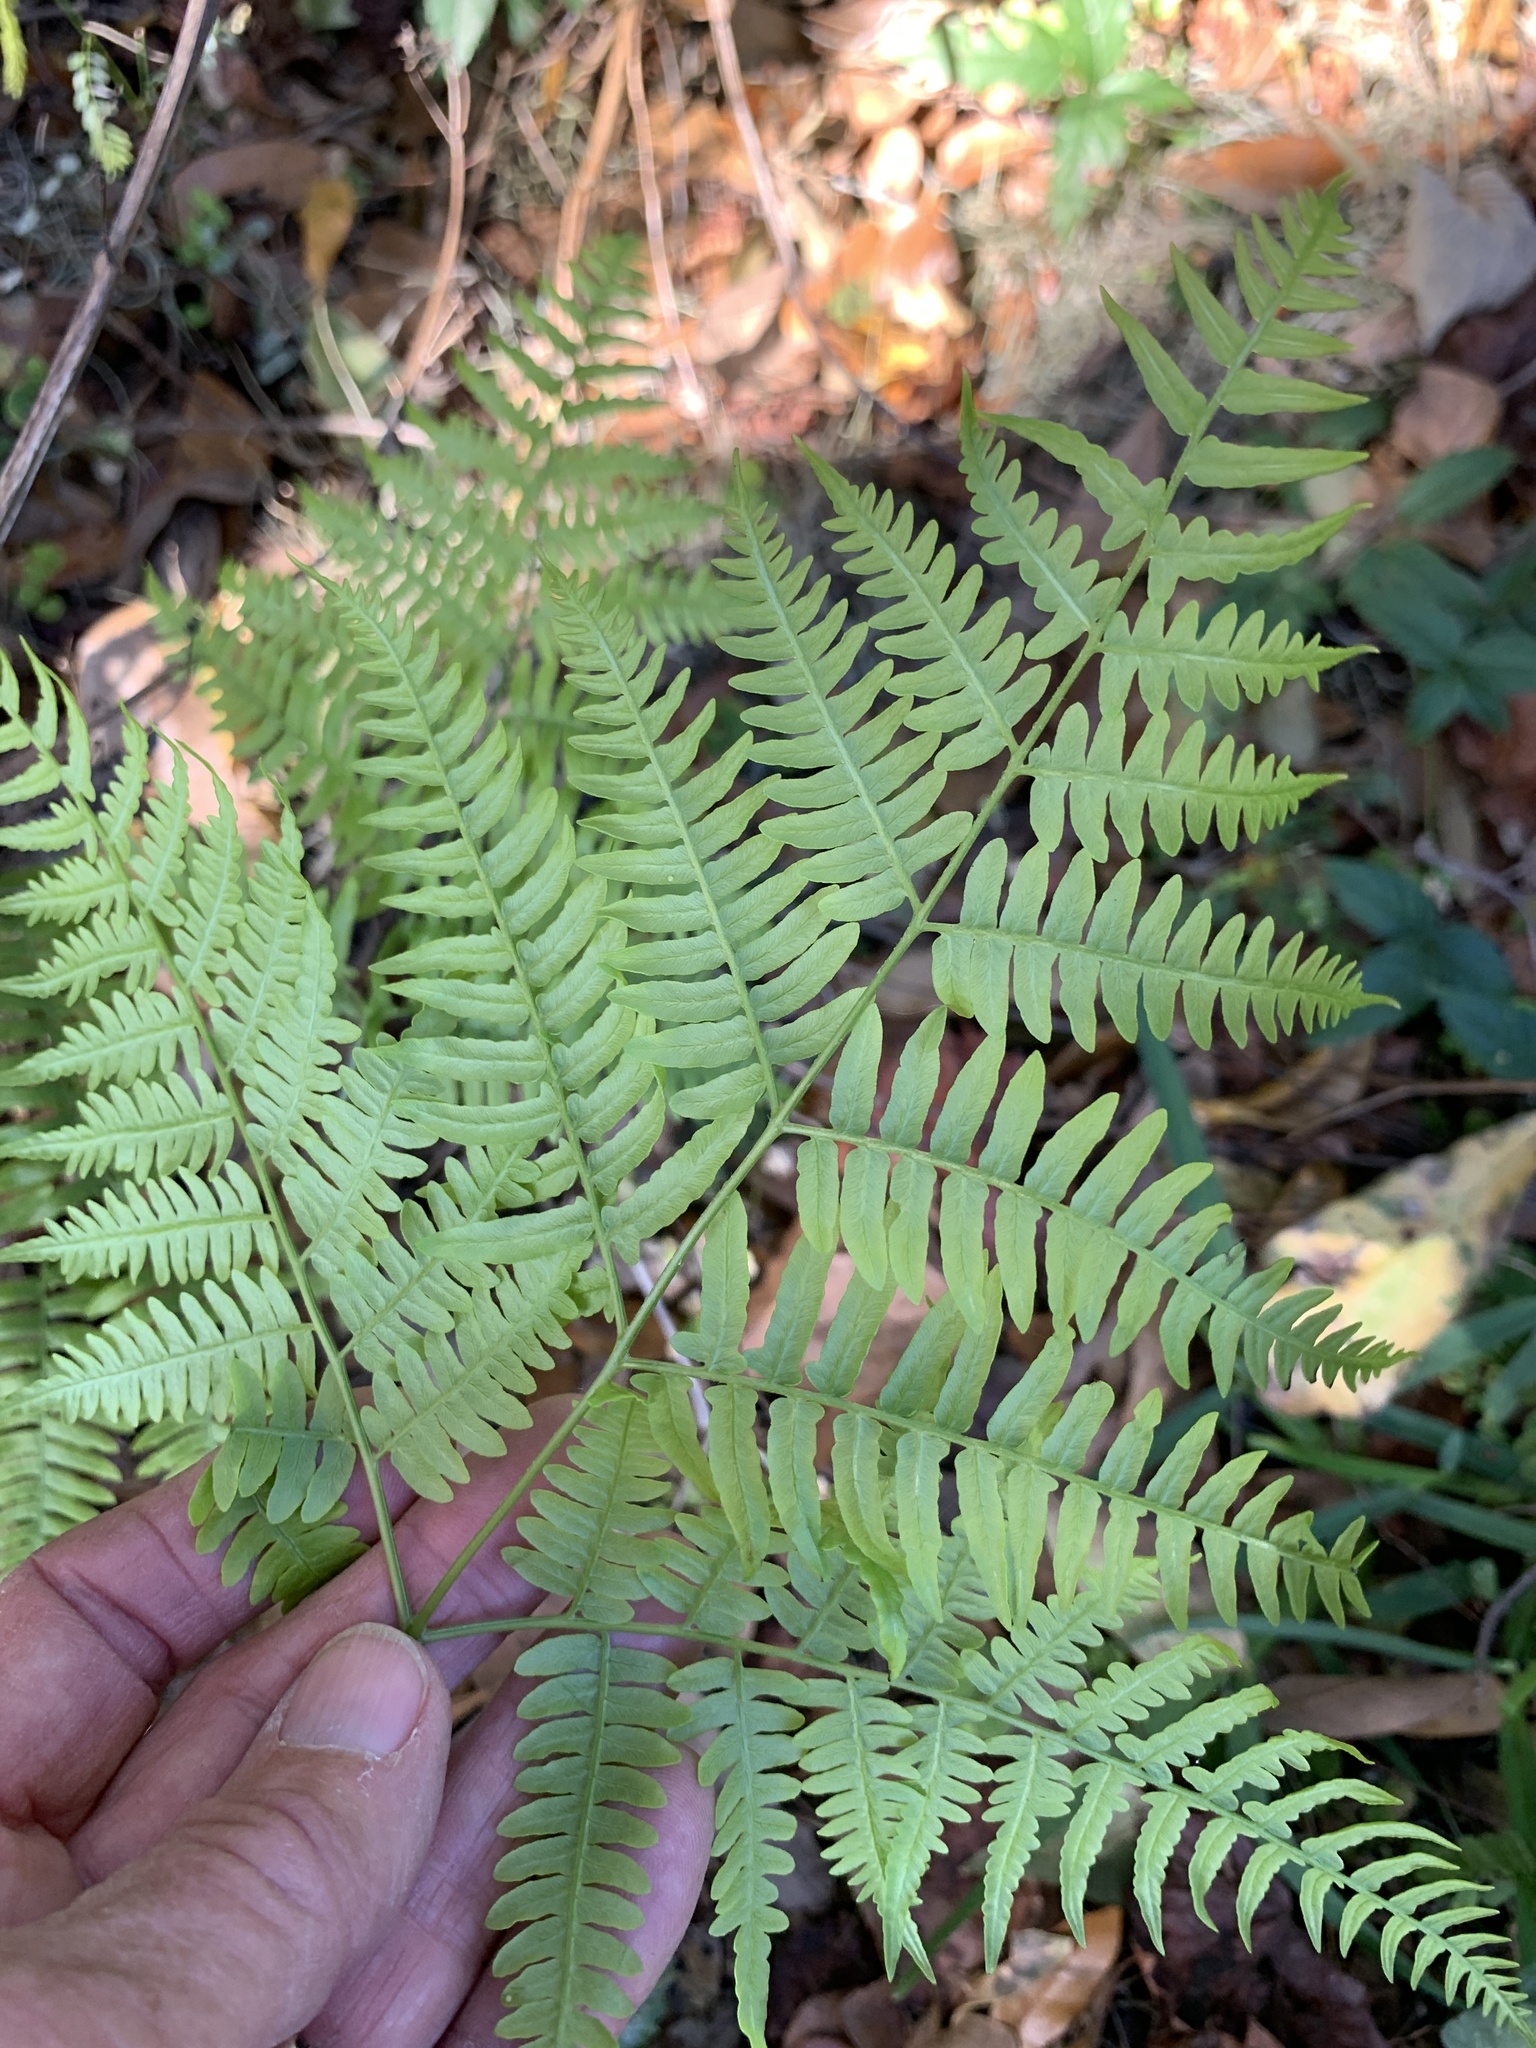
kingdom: Plantae
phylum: Tracheophyta
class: Polypodiopsida
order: Polypodiales
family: Dennstaedtiaceae
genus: Pteridium
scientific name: Pteridium aquilinum
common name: Bracken
